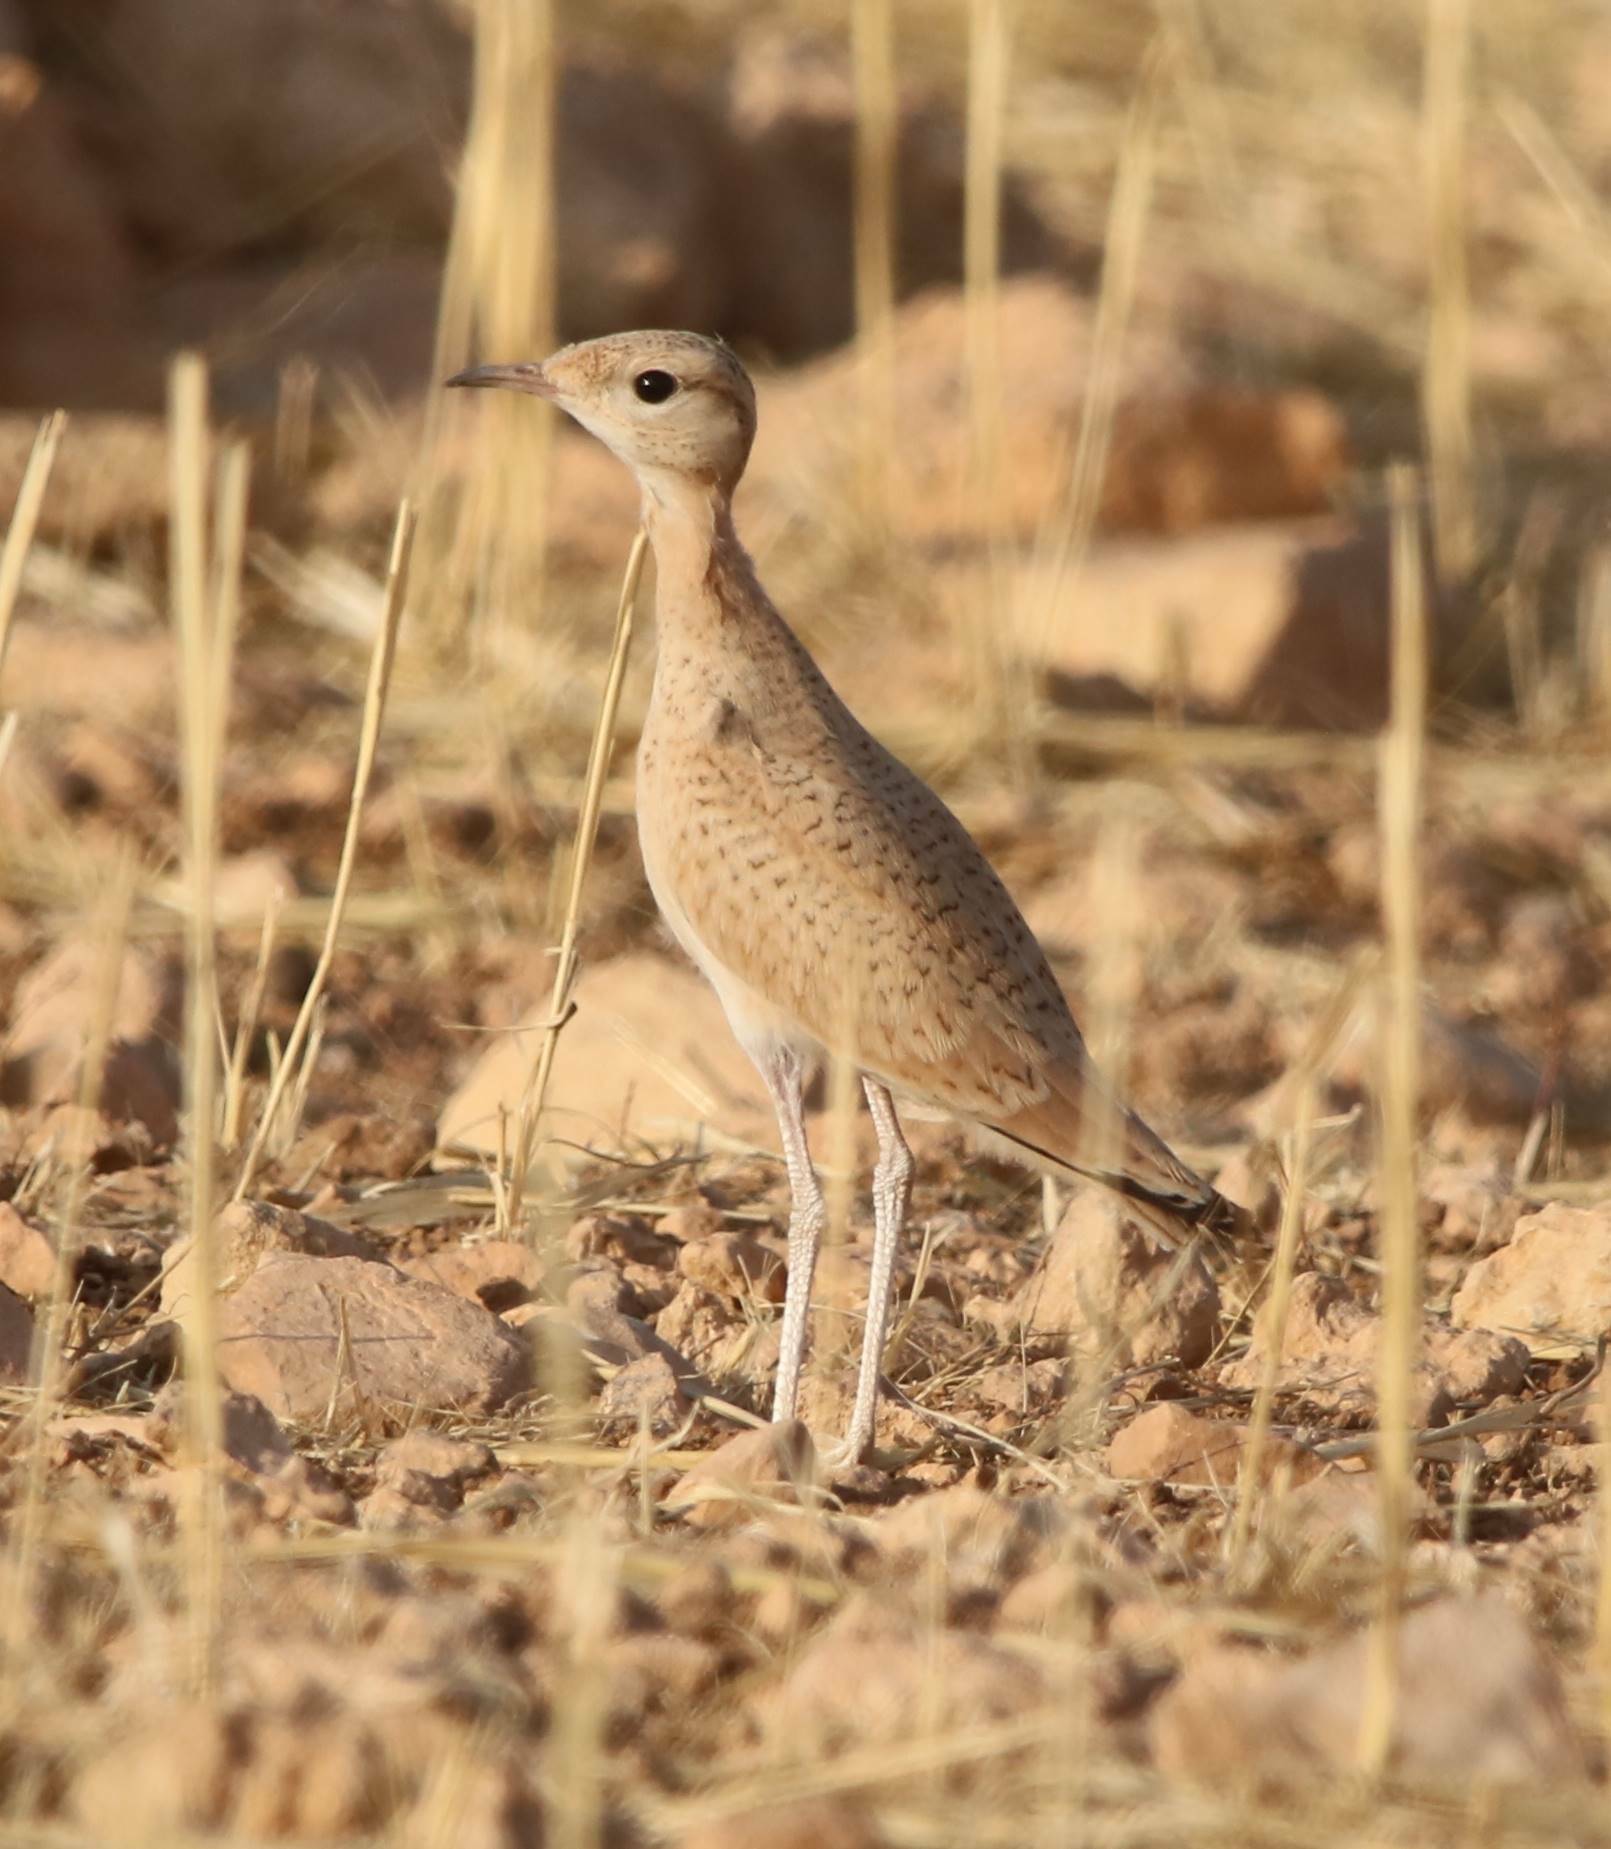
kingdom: Animalia
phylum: Chordata
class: Aves
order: Charadriiformes
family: Glareolidae
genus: Cursorius
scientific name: Cursorius cursor
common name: Cream-colored courser
